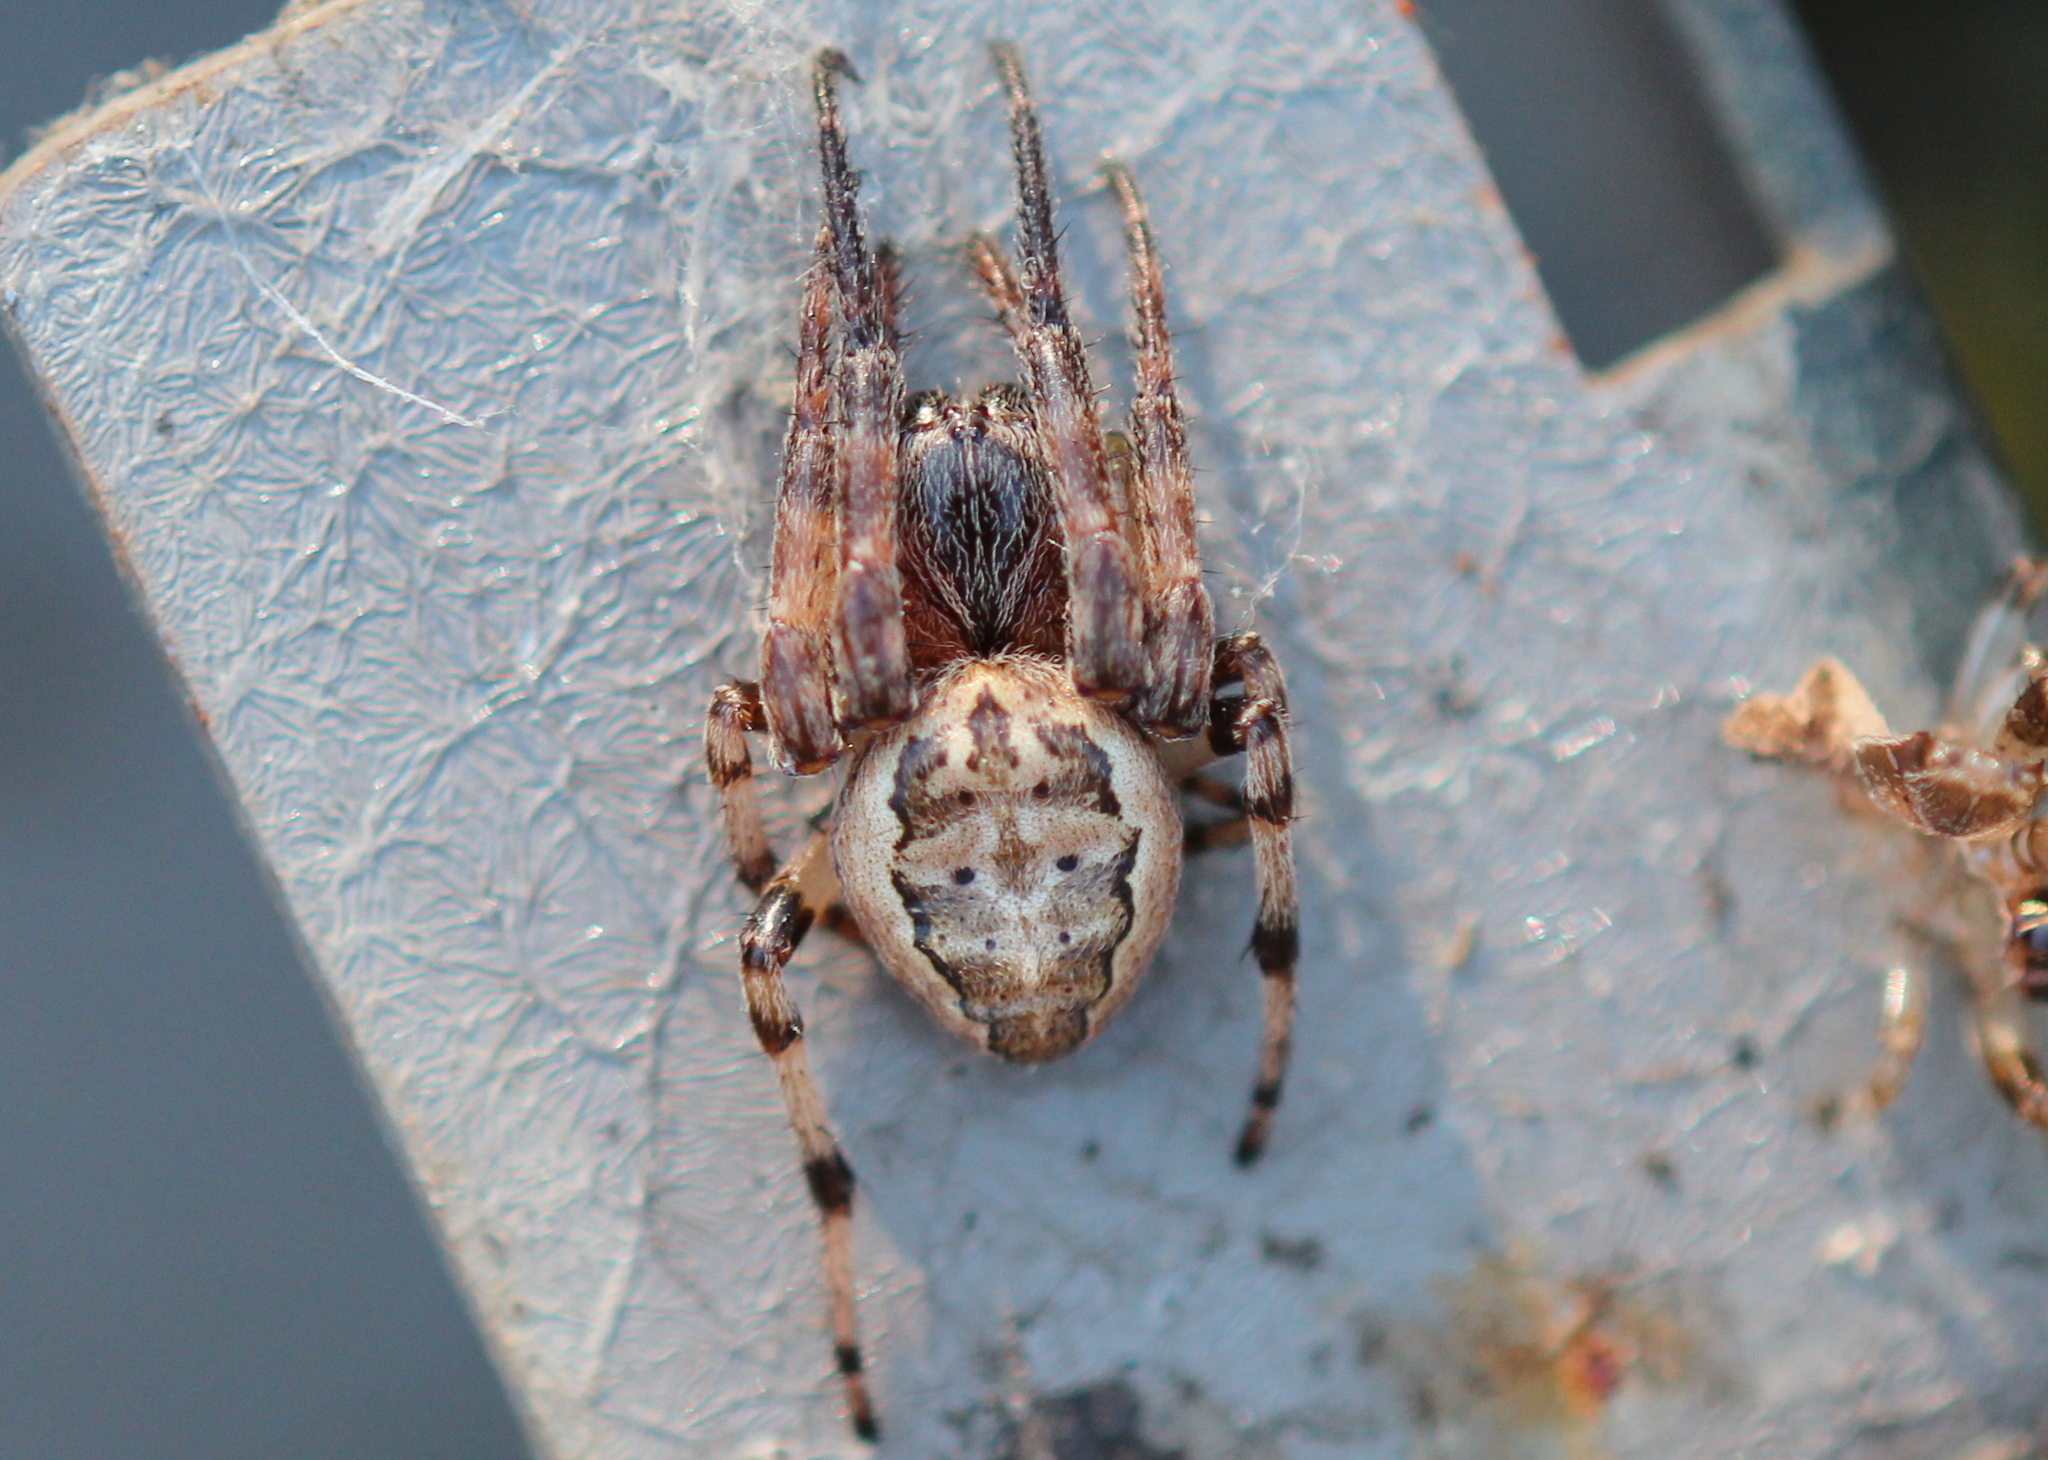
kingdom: Animalia
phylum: Arthropoda
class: Arachnida
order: Araneae
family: Araneidae
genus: Larinioides
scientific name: Larinioides cornutus
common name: Furrow orbweaver
